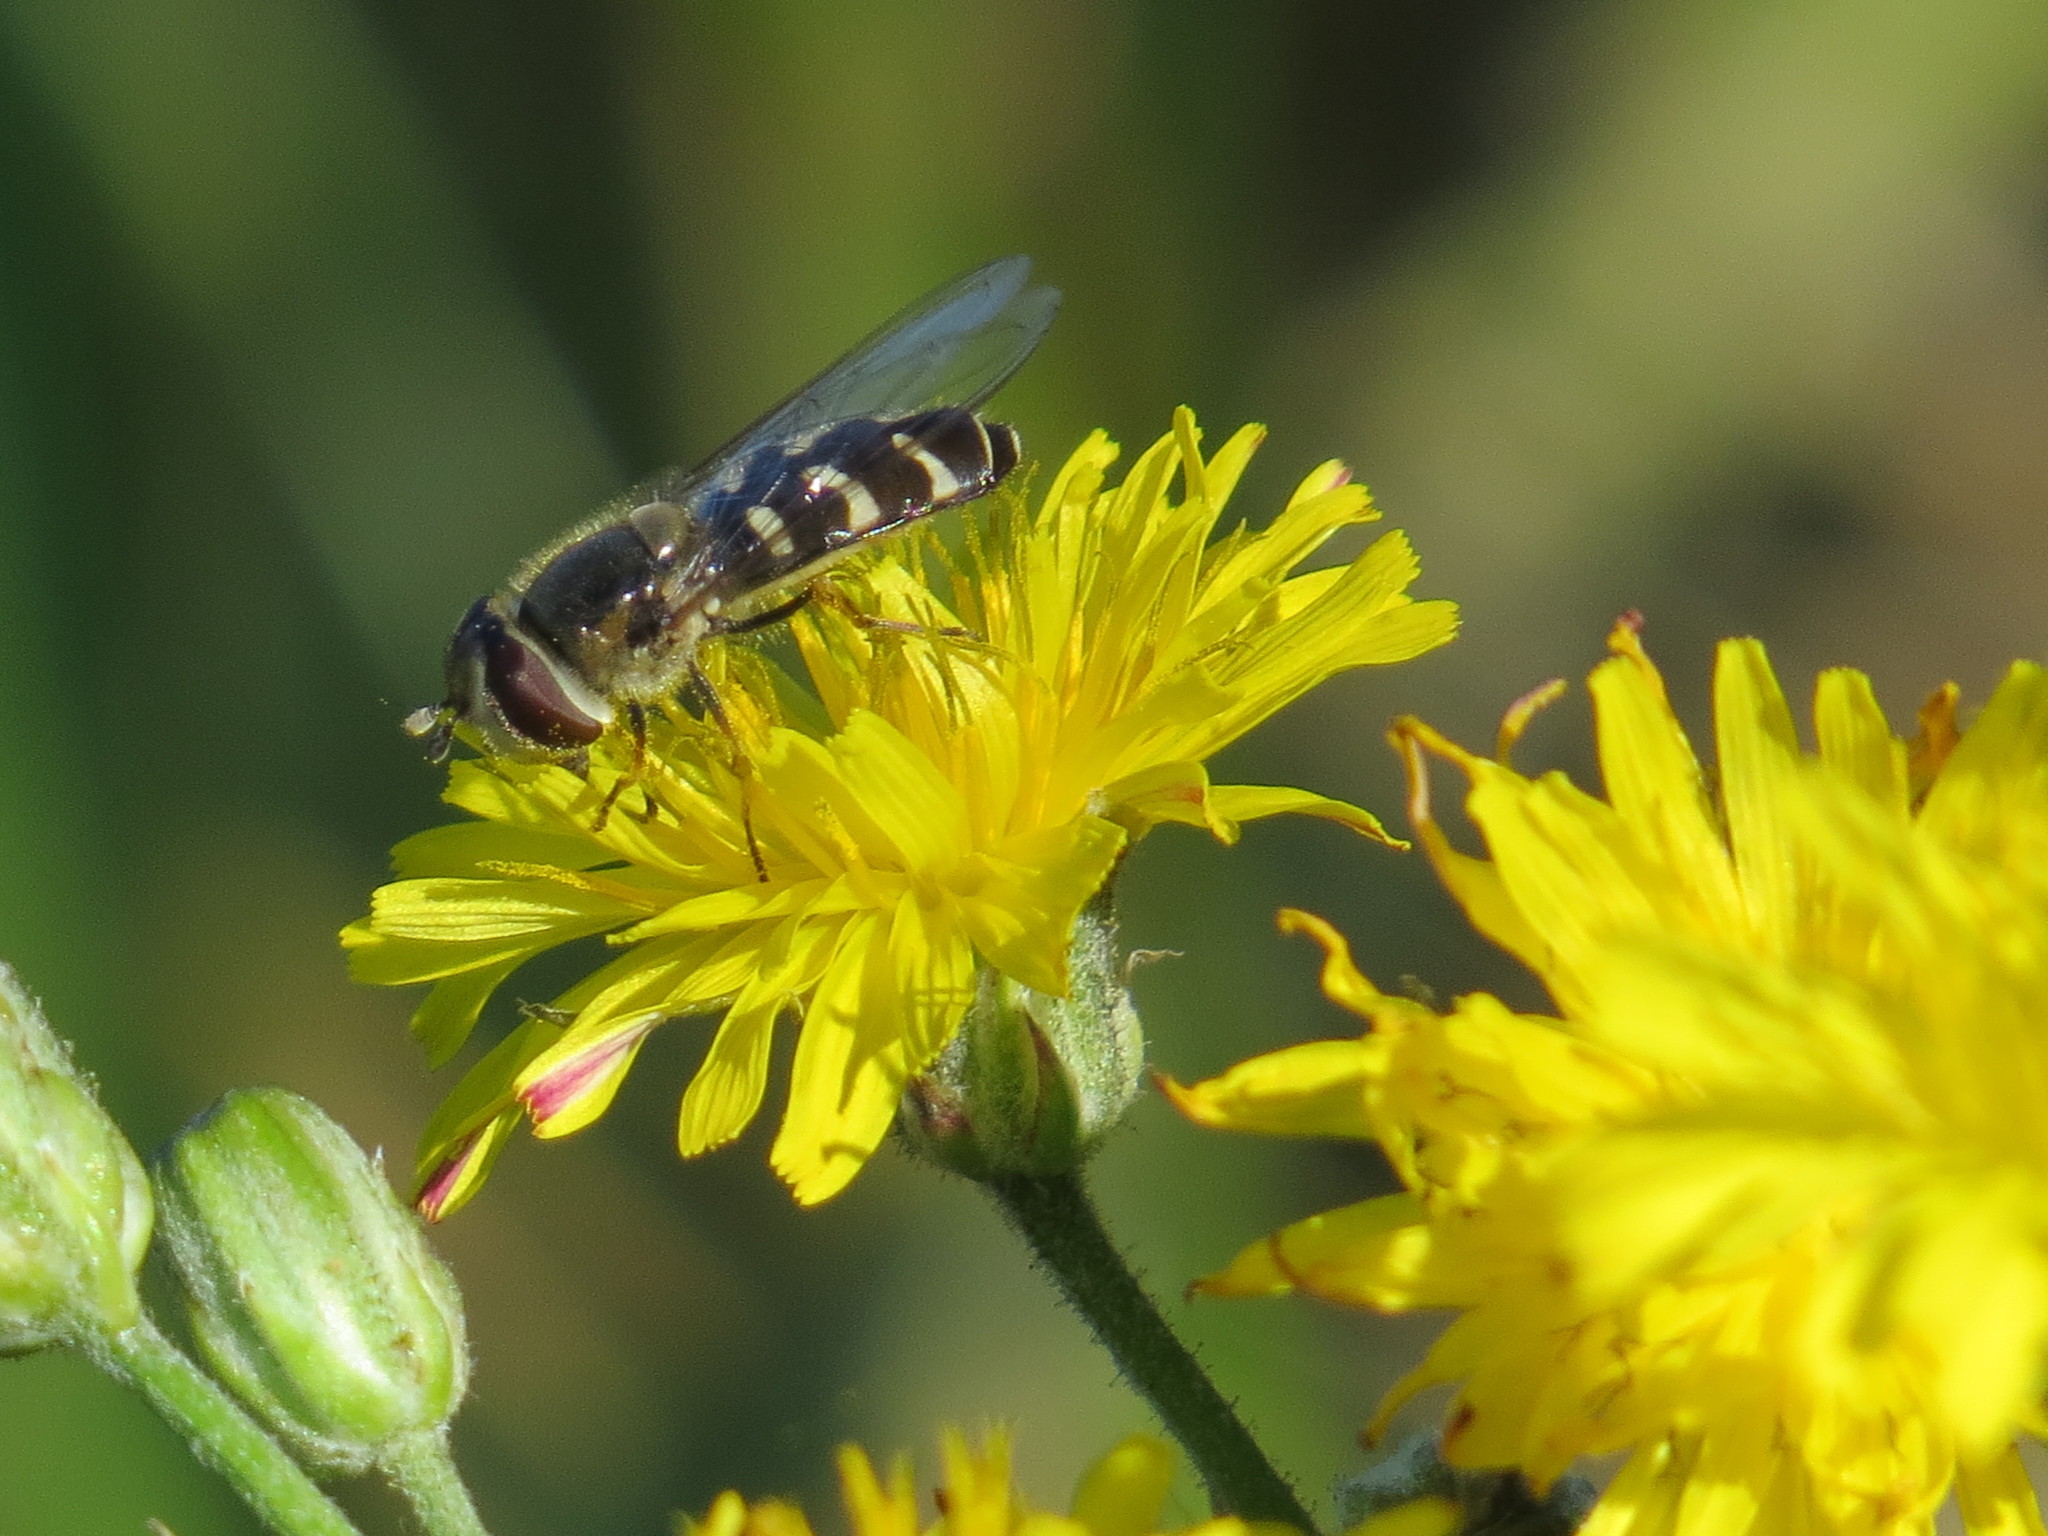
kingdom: Animalia
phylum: Arthropoda
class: Insecta
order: Diptera
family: Syrphidae
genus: Scaeva
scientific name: Scaeva affinis
